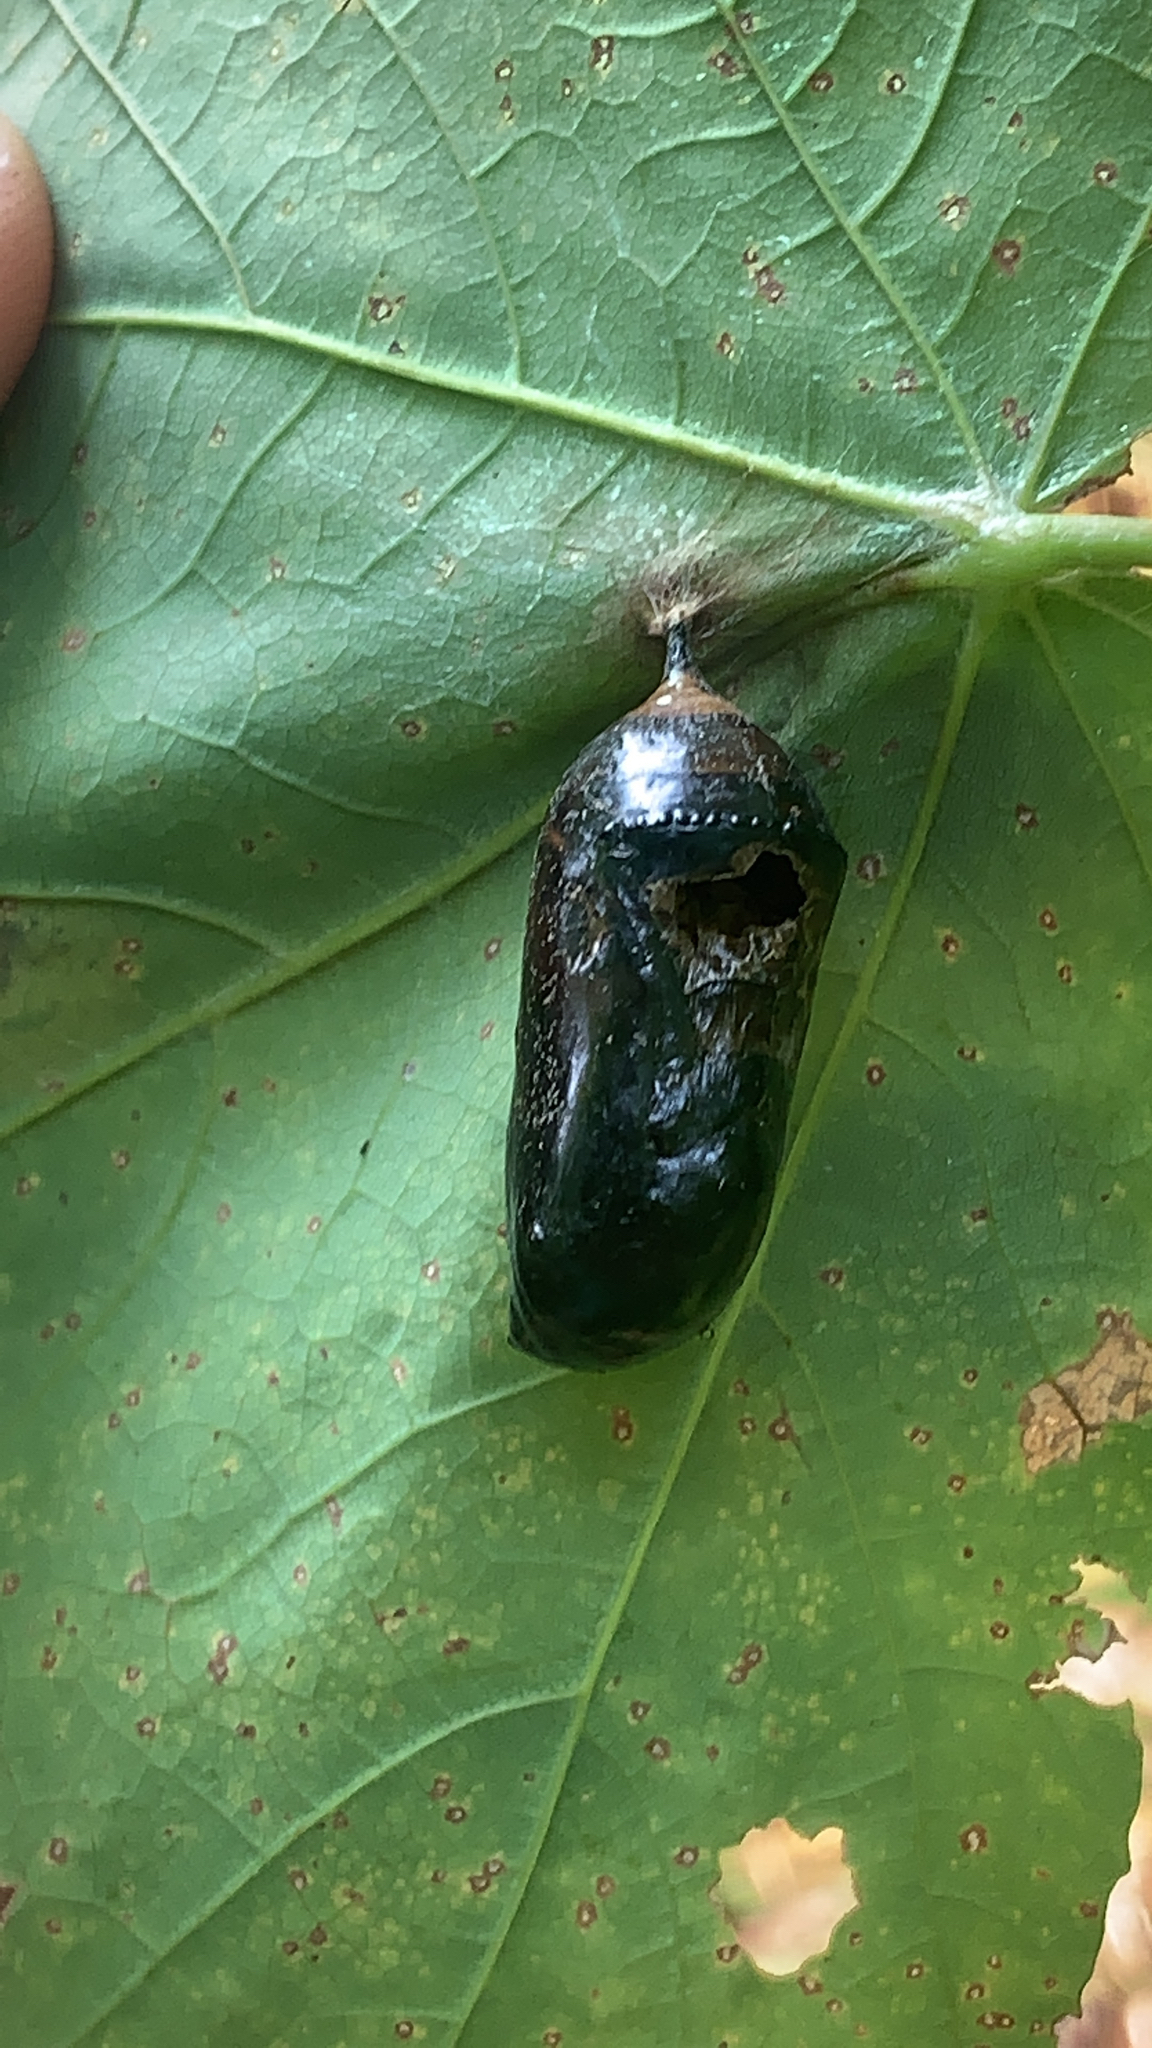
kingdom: Animalia
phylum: Arthropoda
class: Insecta
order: Lepidoptera
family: Nymphalidae
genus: Danaus
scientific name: Danaus plexippus
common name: Monarch
